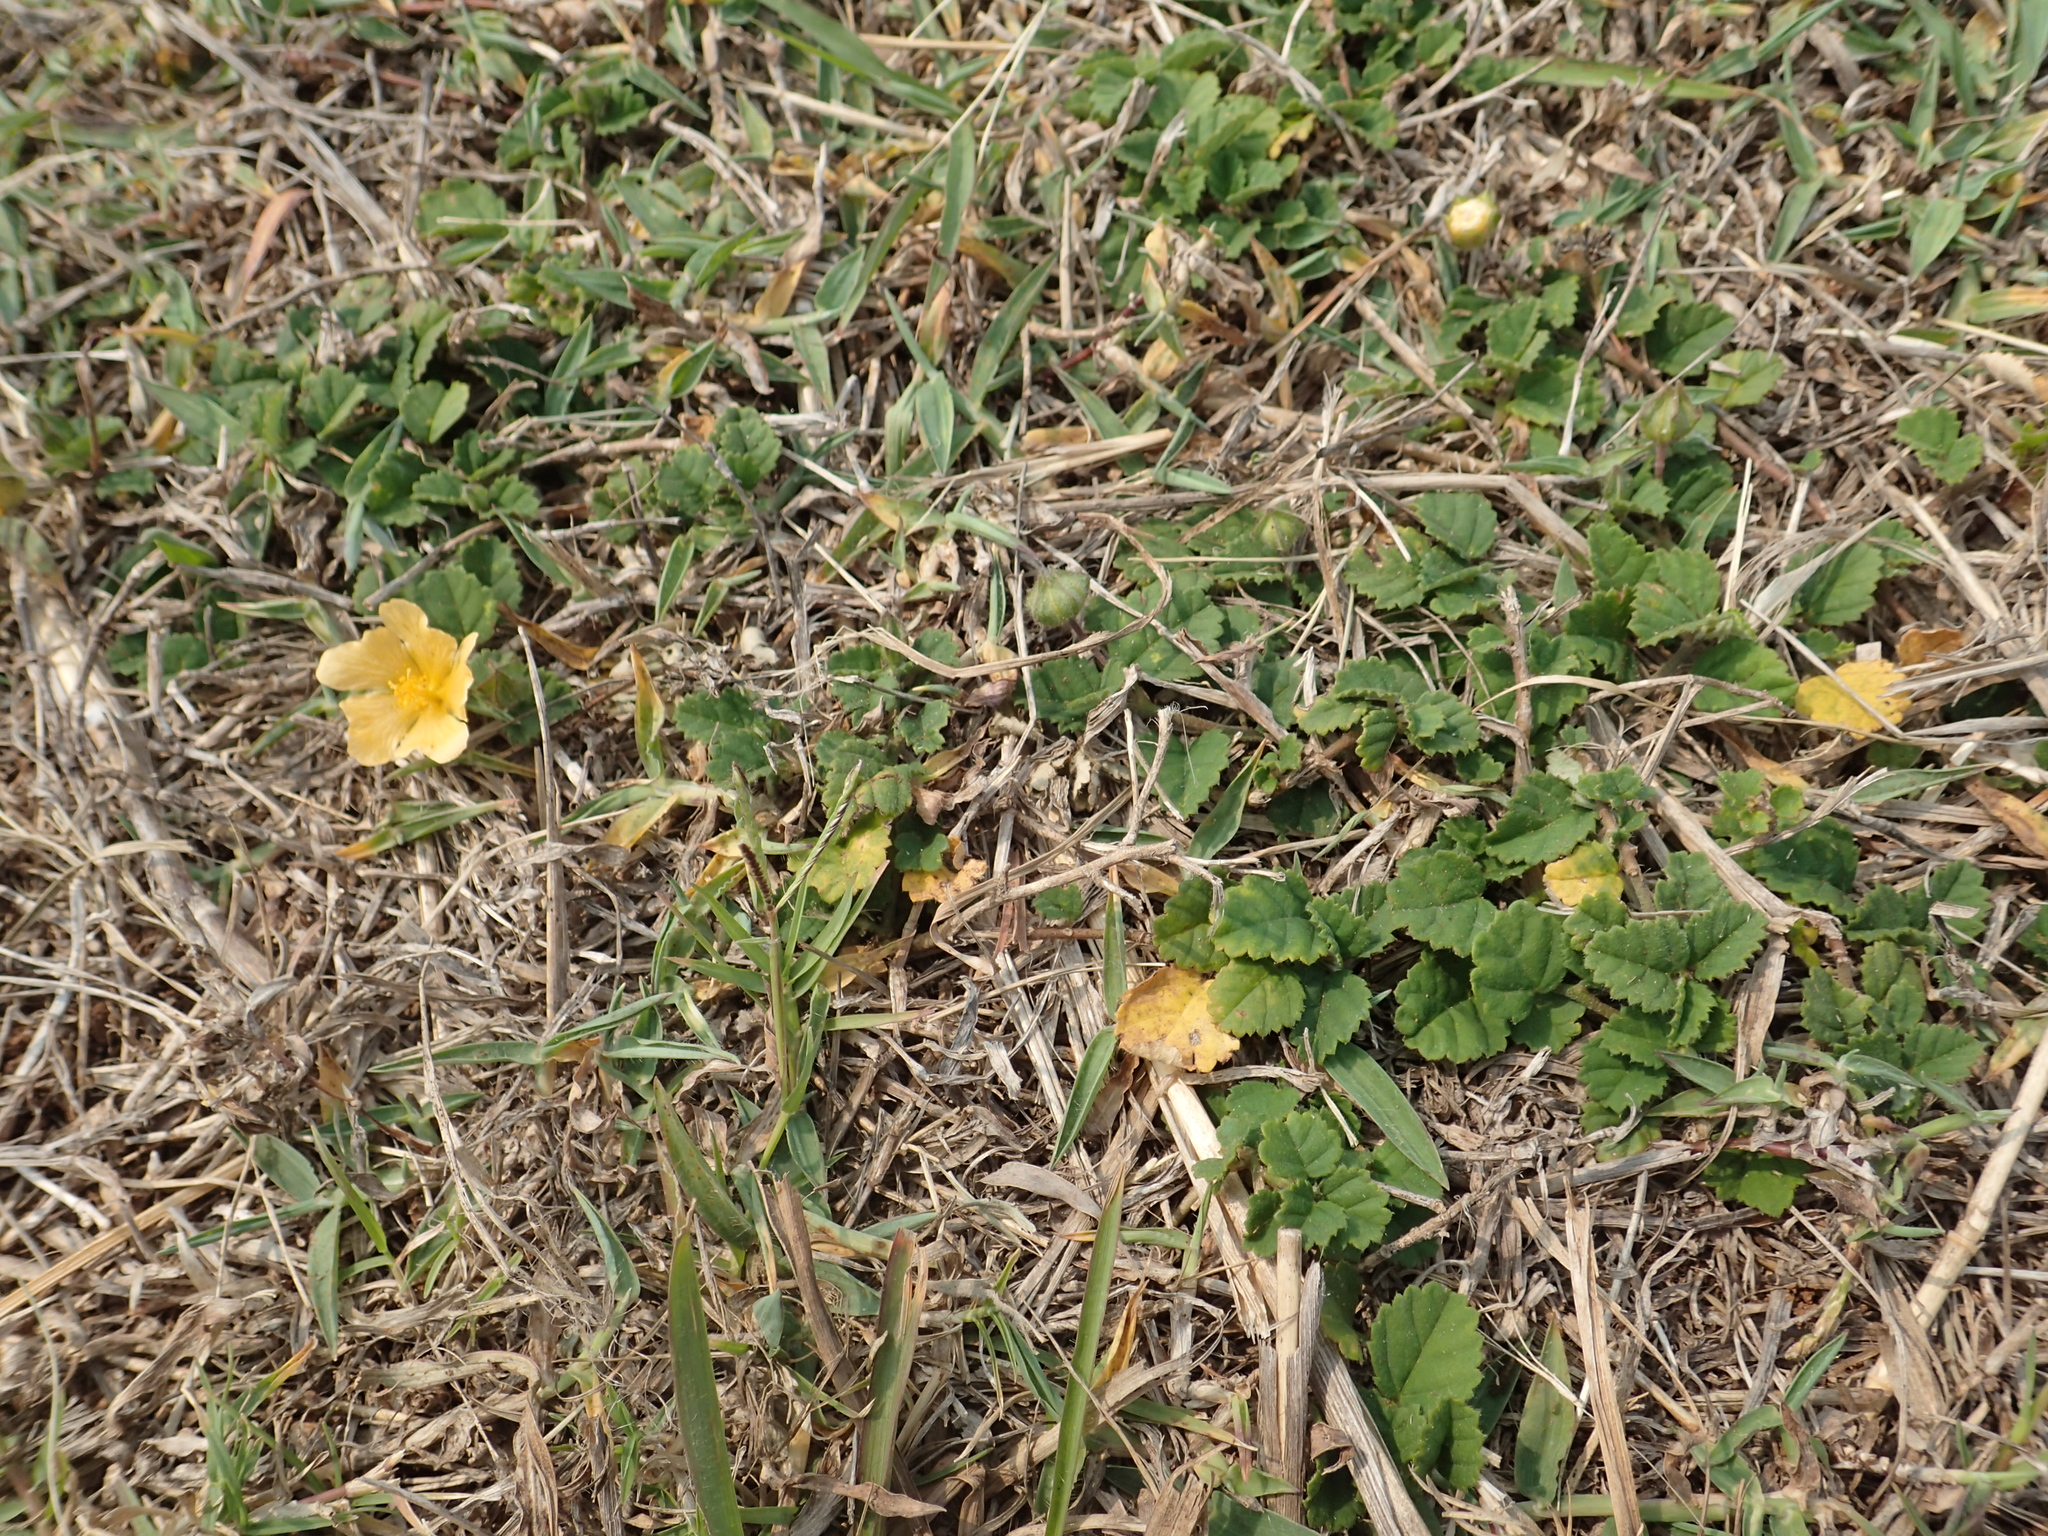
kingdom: Plantae
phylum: Tracheophyta
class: Magnoliopsida
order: Malvales
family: Malvaceae
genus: Sida
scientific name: Sida rhombifolia
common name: Queensland-hemp
